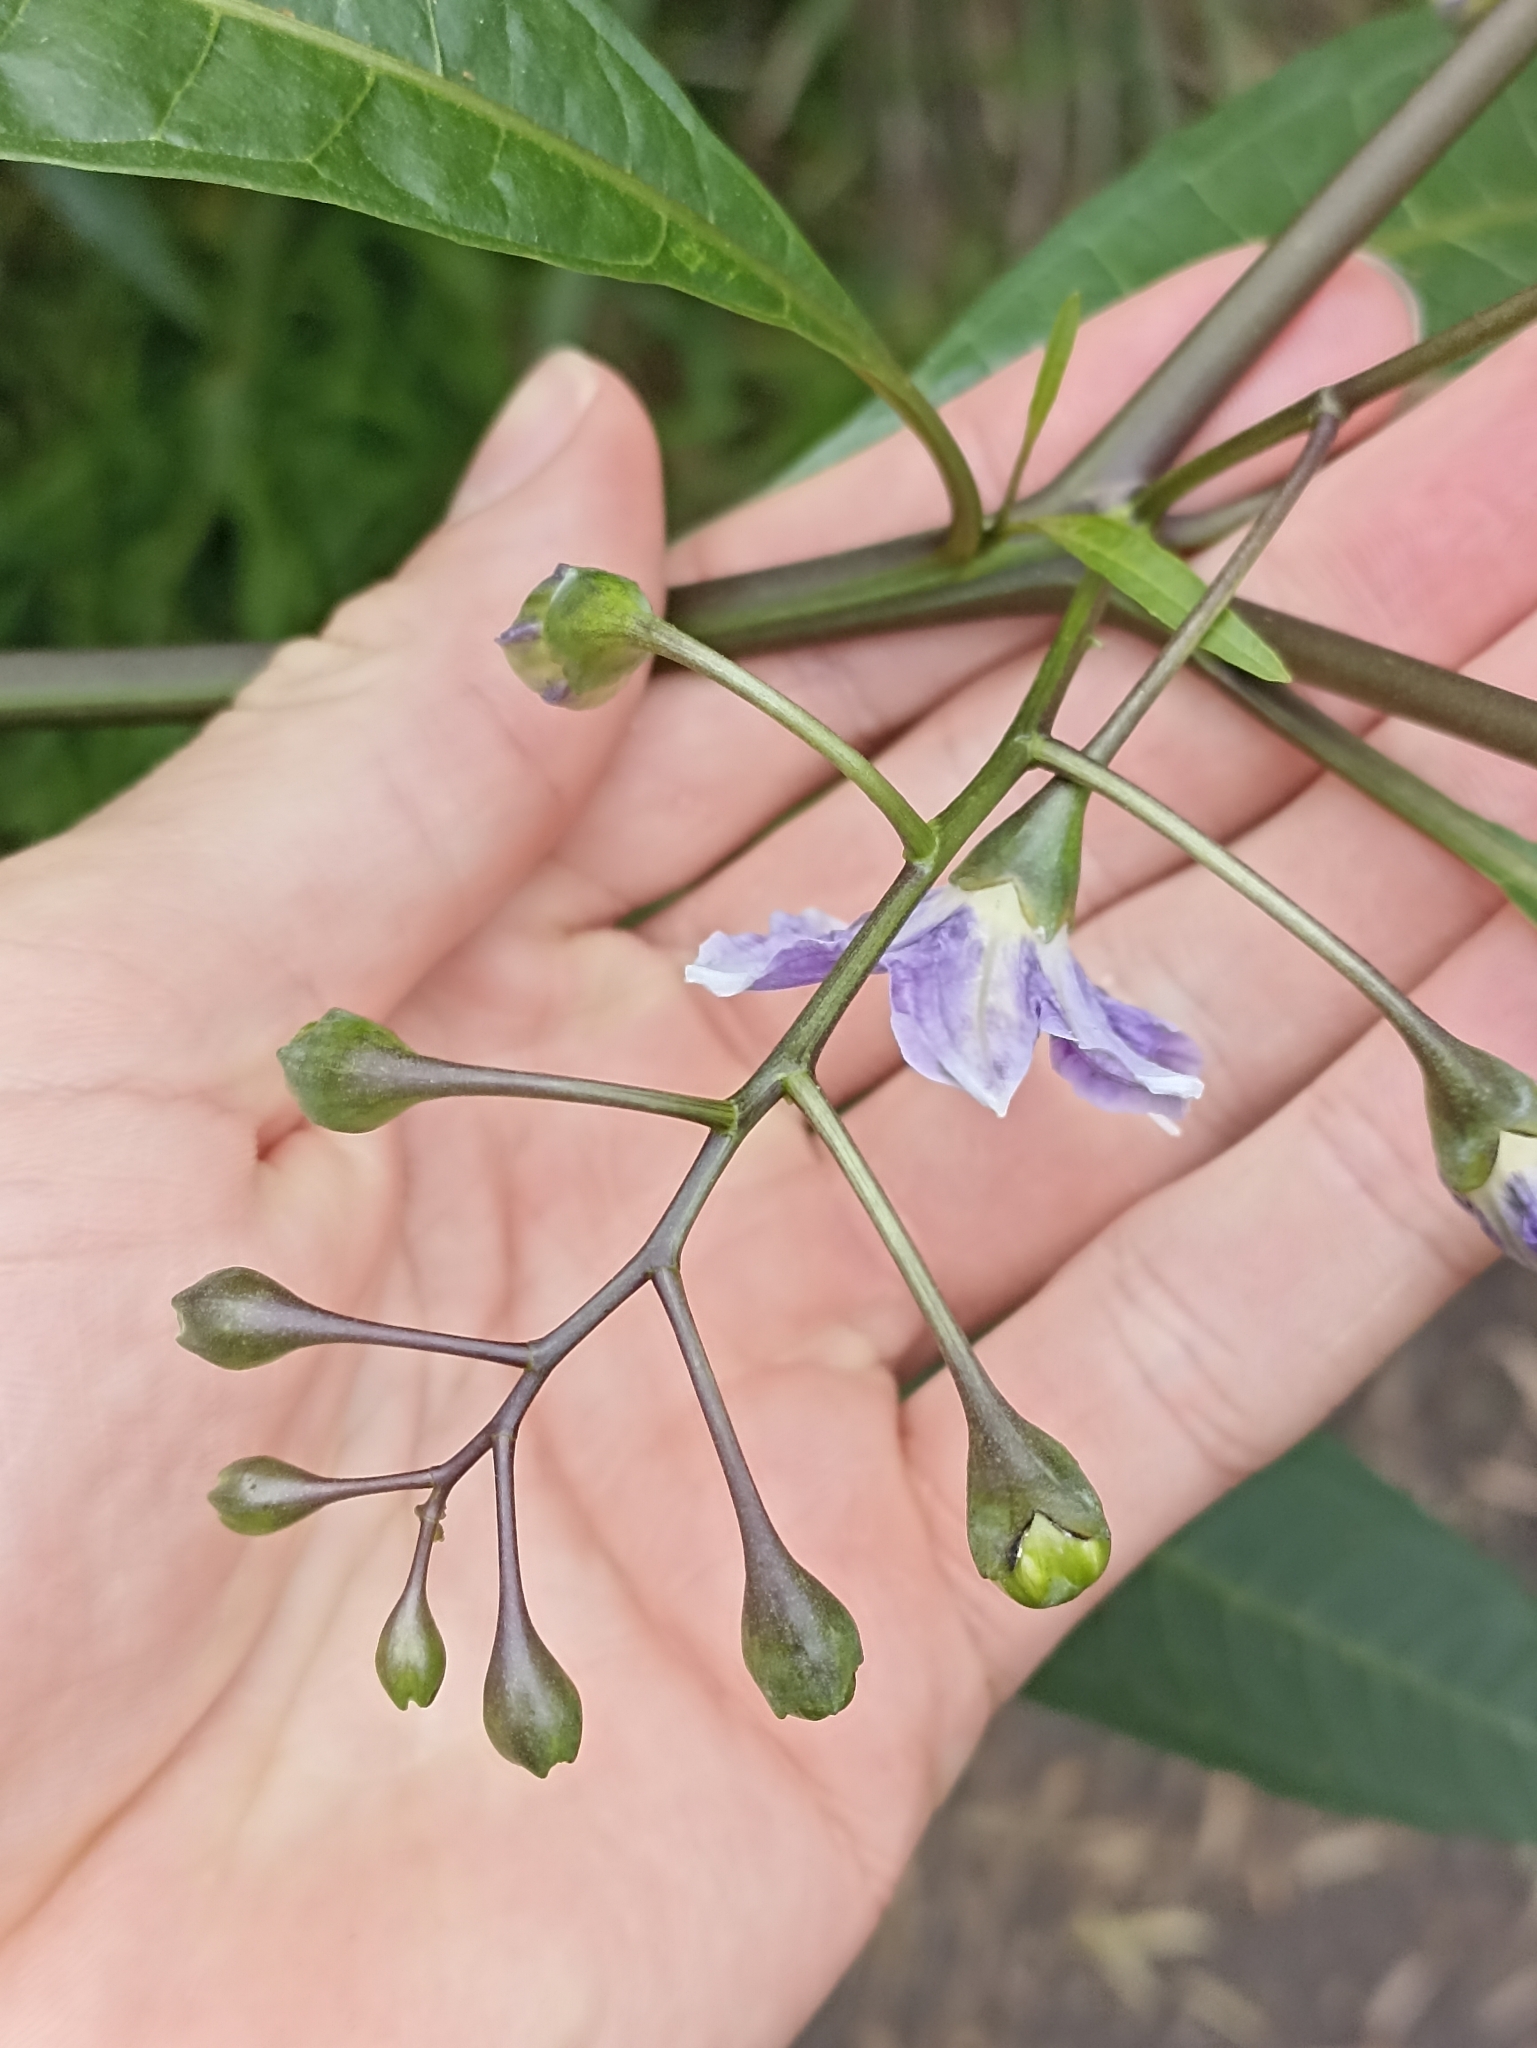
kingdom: Plantae
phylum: Tracheophyta
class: Magnoliopsida
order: Solanales
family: Solanaceae
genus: Solanum
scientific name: Solanum aviculare
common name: New zealand nightshade
